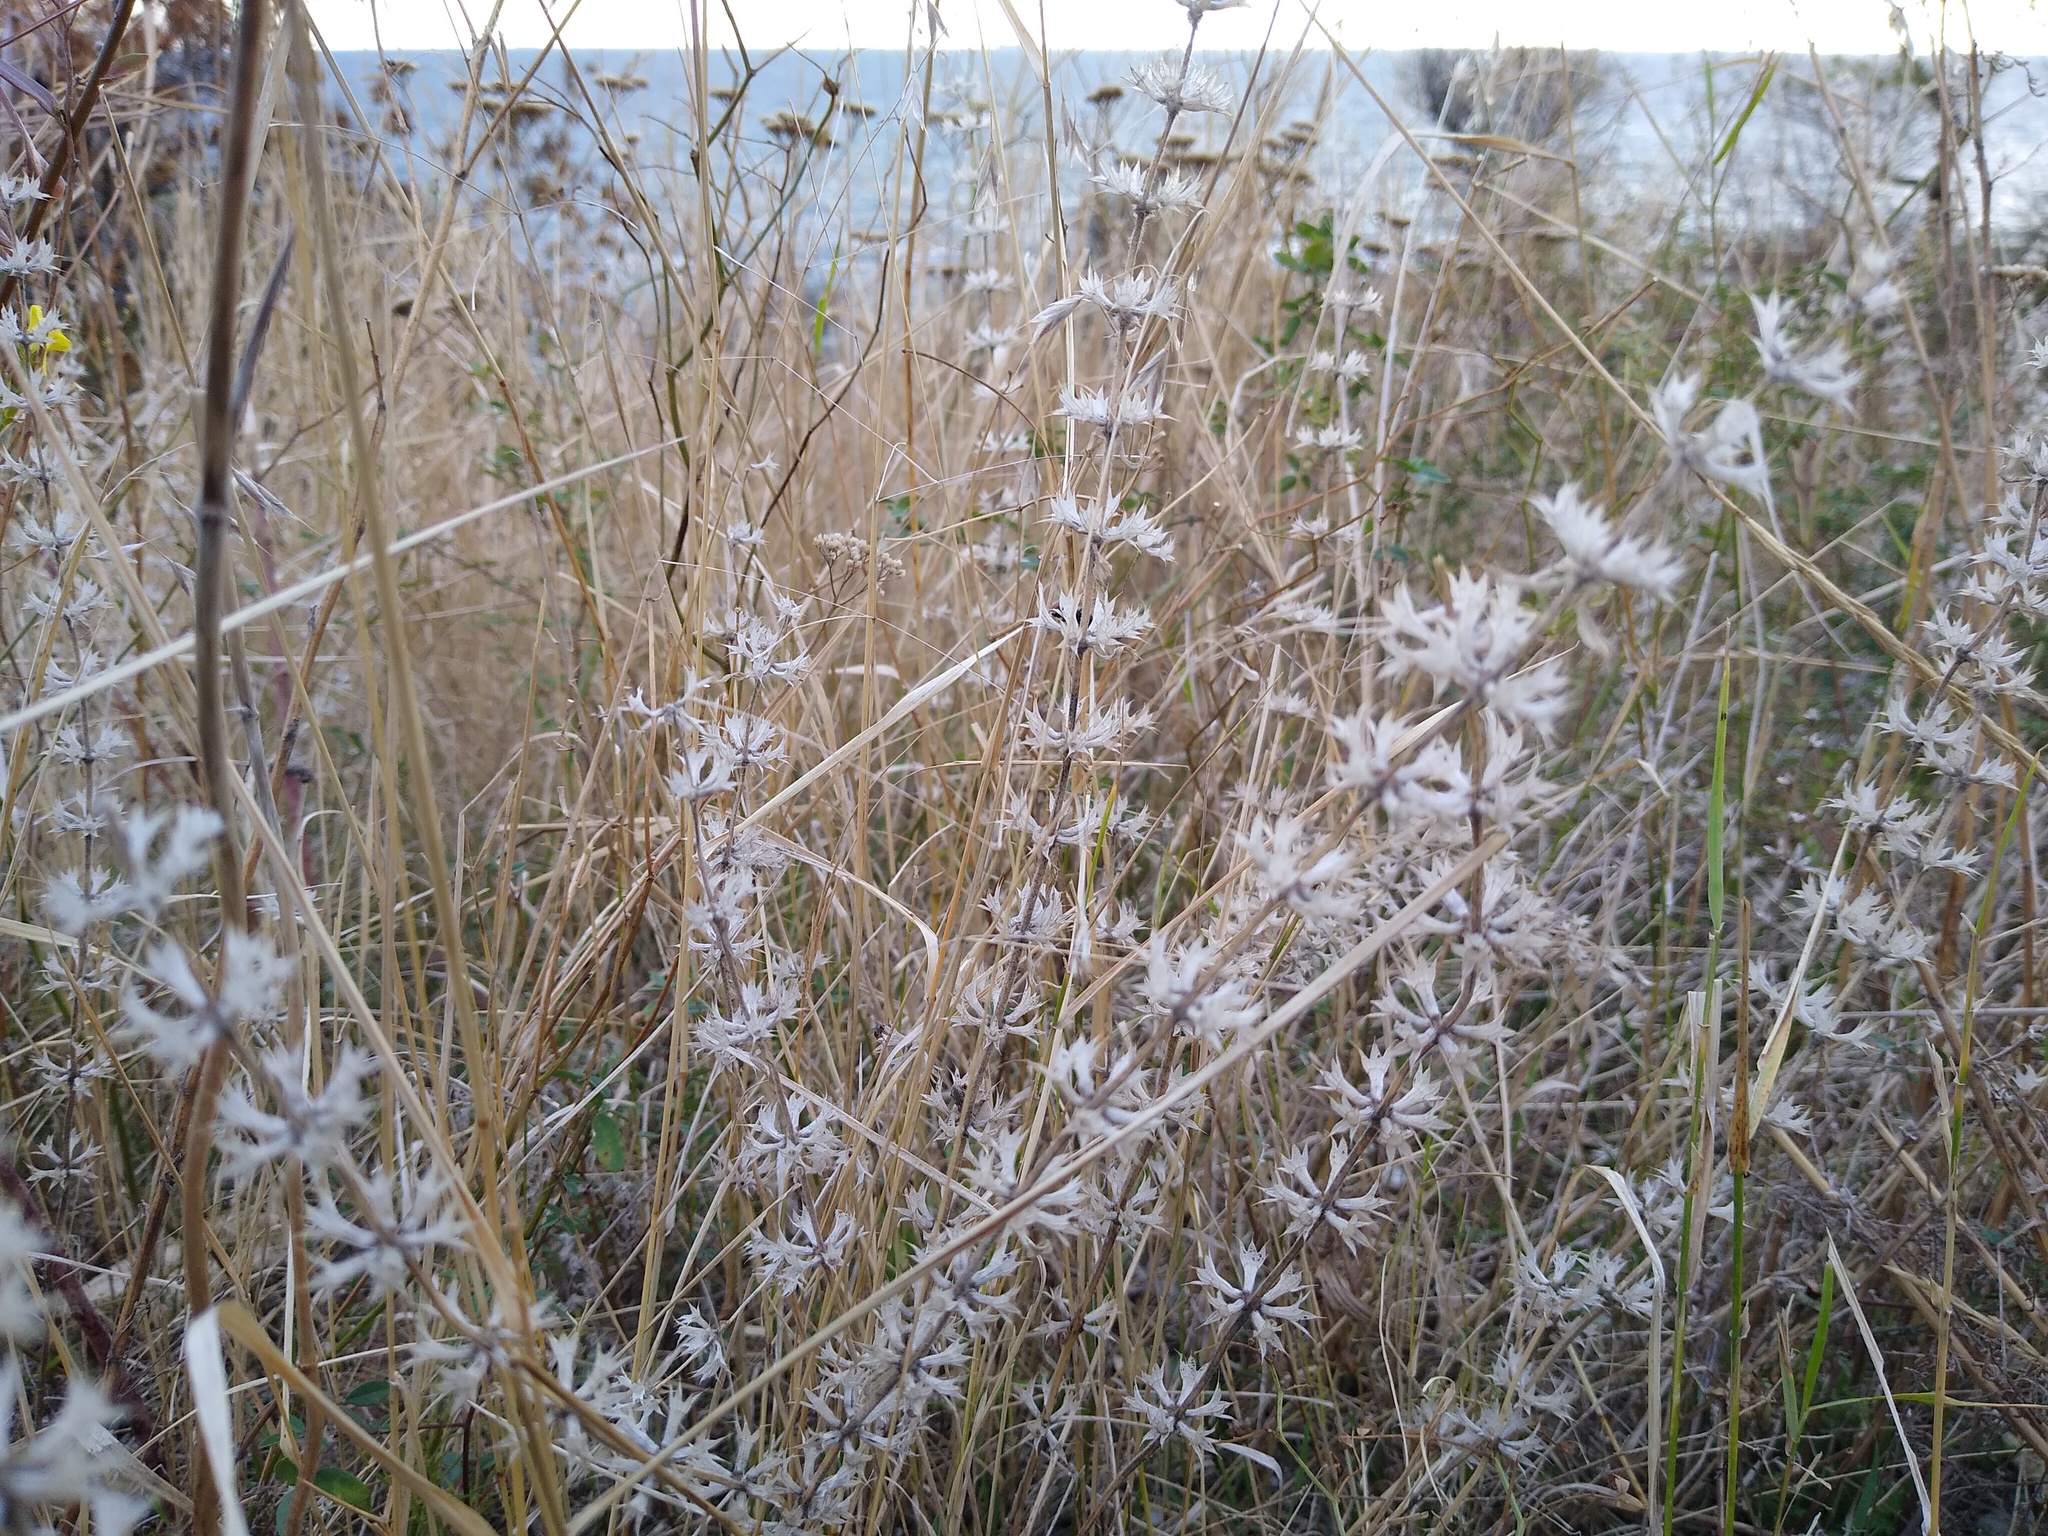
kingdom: Plantae
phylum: Tracheophyta
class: Magnoliopsida
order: Lamiales
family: Lamiaceae
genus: Sideritis
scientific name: Sideritis montana
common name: Mountain ironwort
